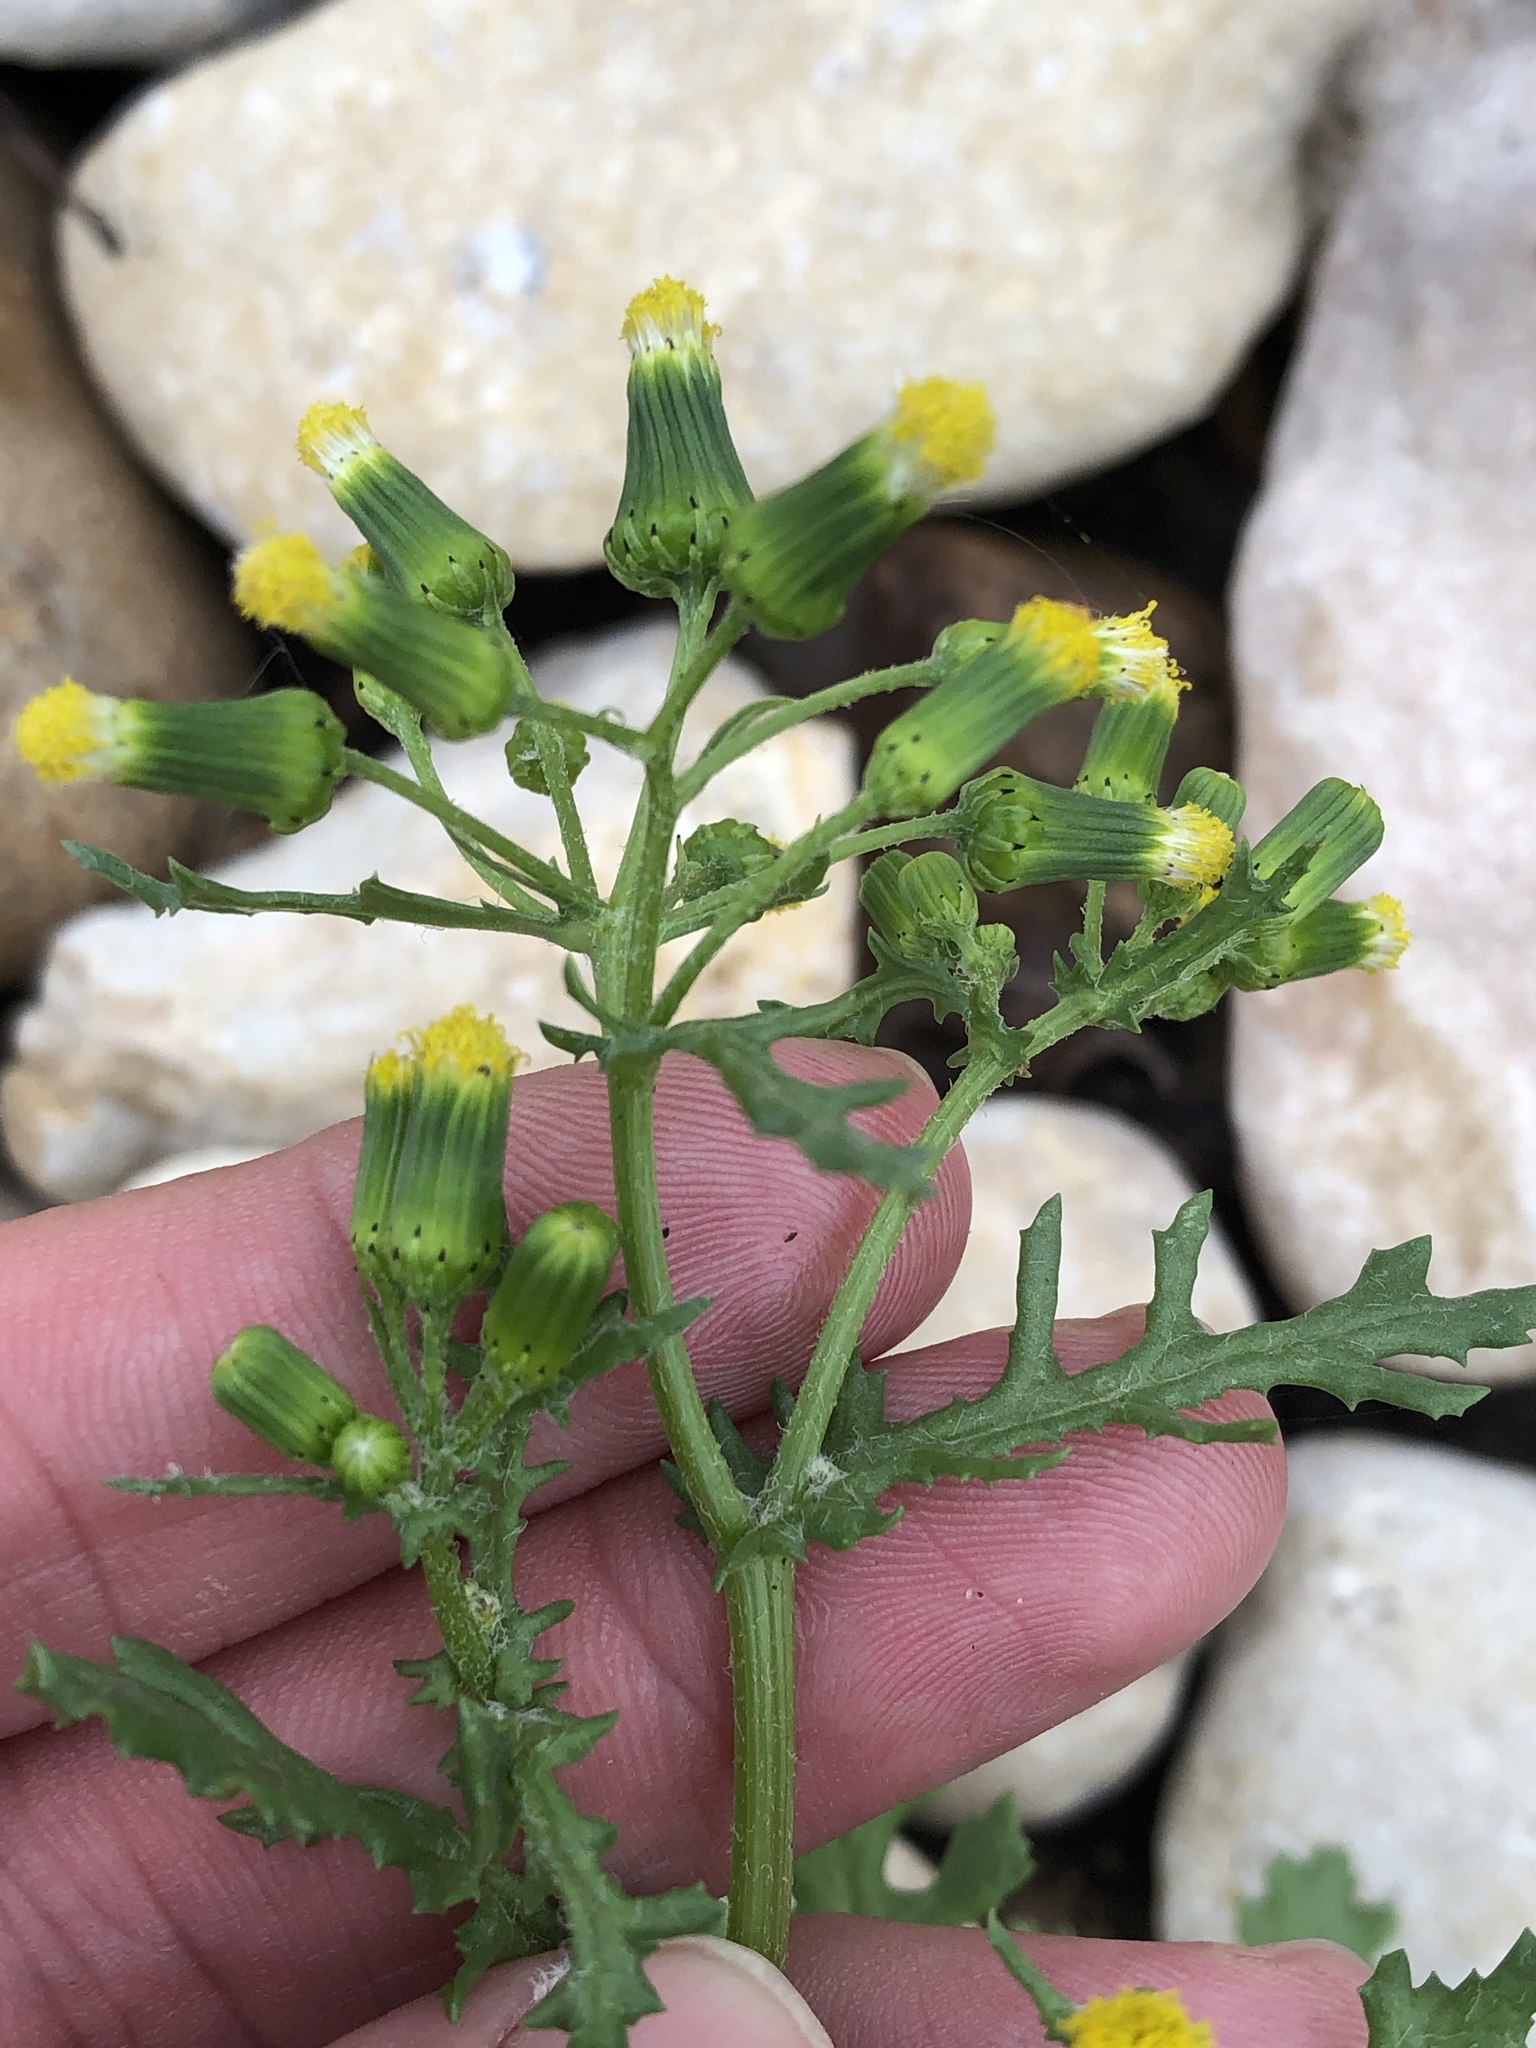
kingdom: Plantae
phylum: Tracheophyta
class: Magnoliopsida
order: Asterales
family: Asteraceae
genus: Senecio
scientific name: Senecio vulgaris
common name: Old-man-in-the-spring
